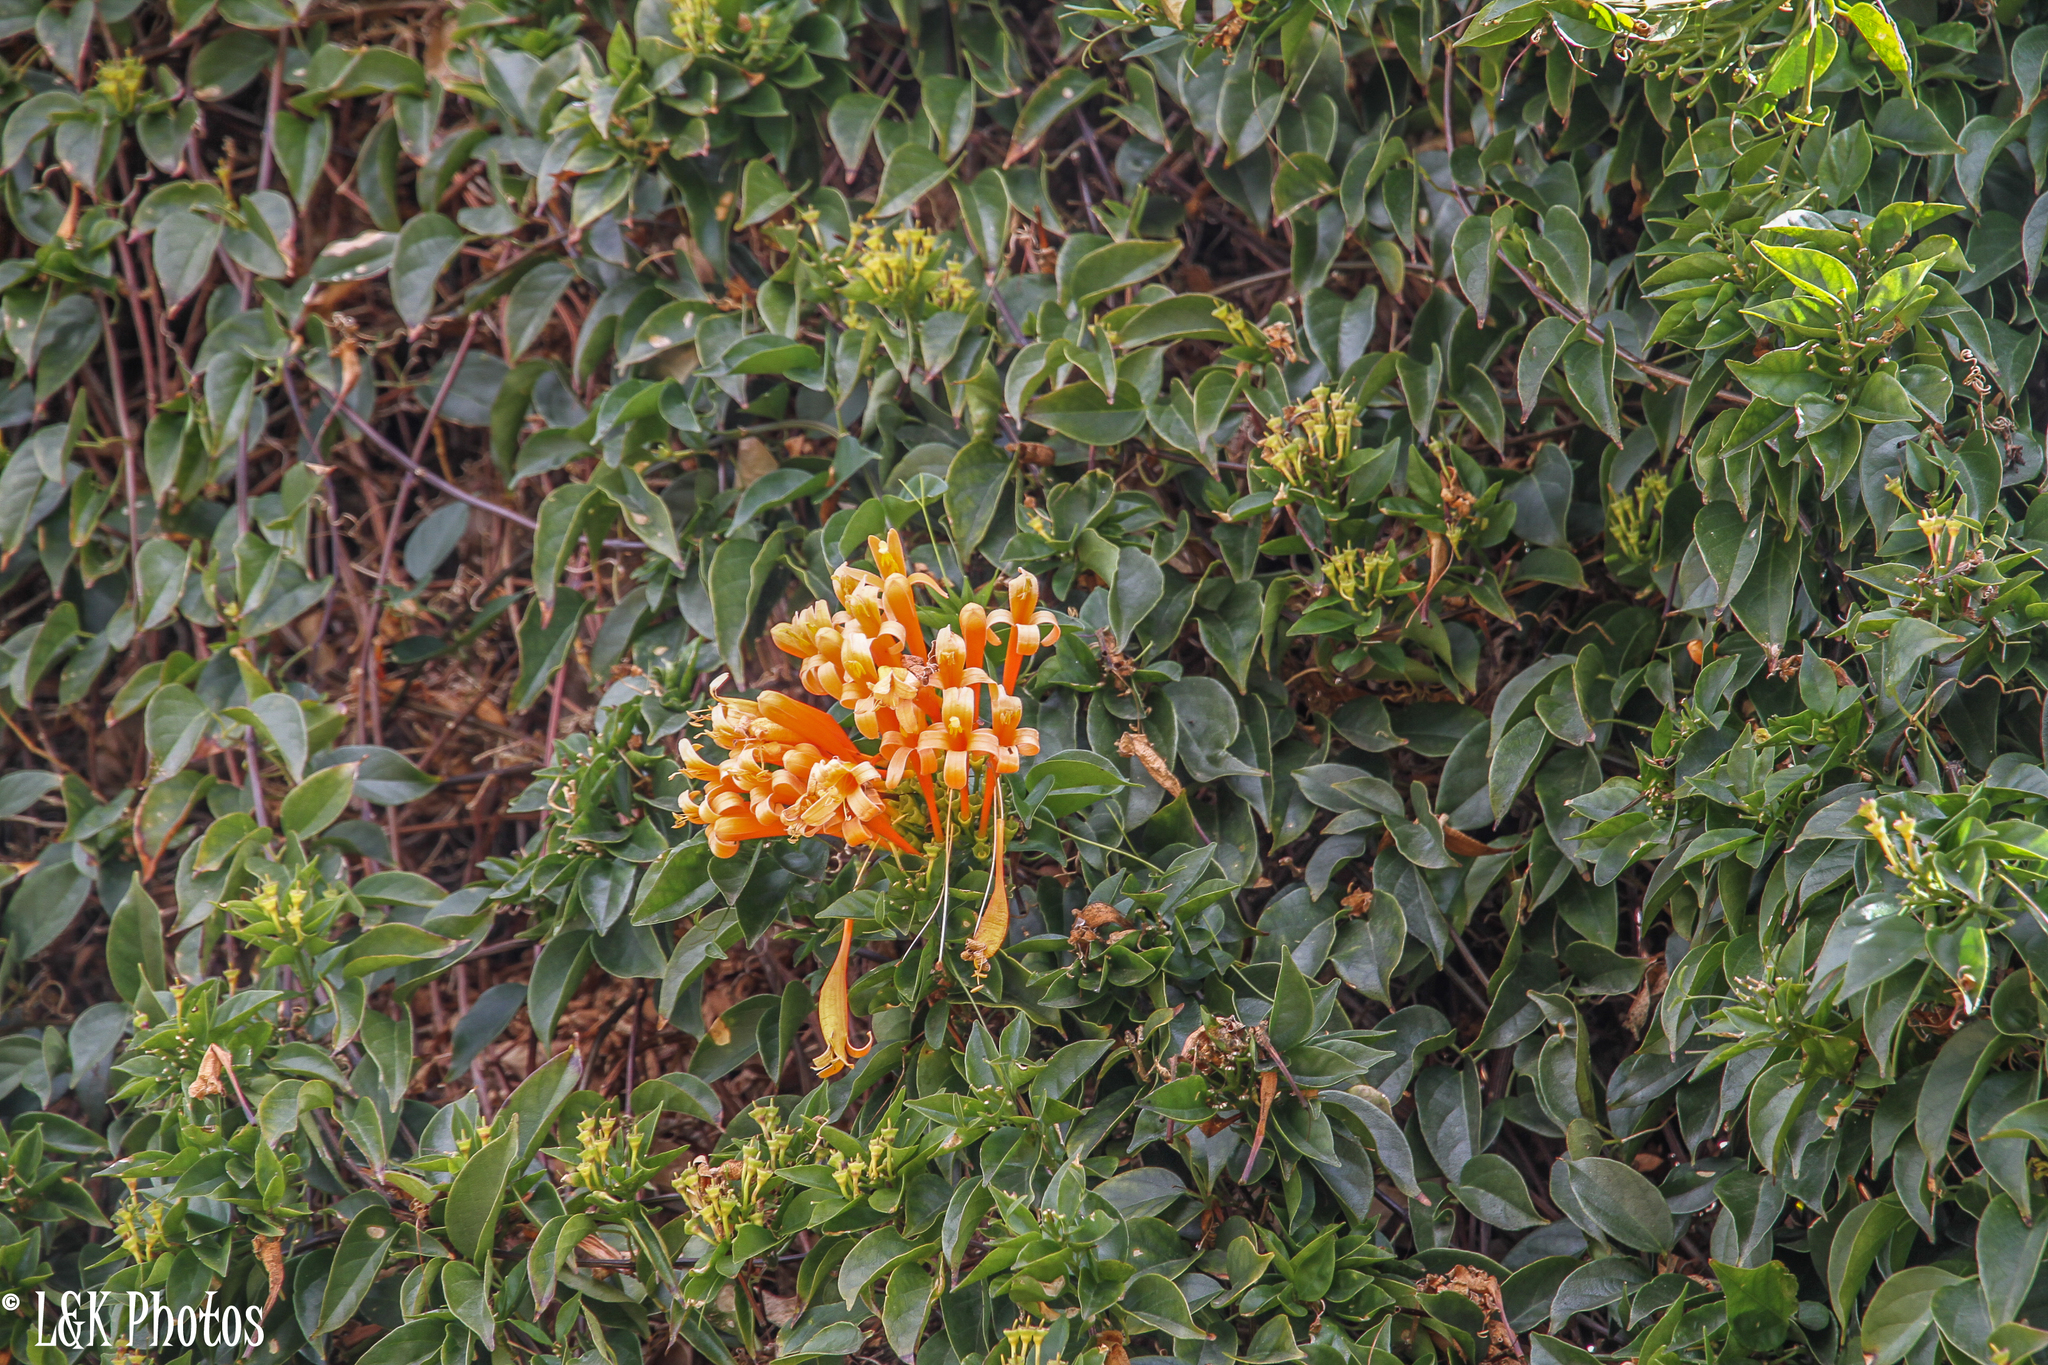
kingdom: Plantae
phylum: Tracheophyta
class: Magnoliopsida
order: Lamiales
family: Bignoniaceae
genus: Pyrostegia
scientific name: Pyrostegia venusta
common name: Flamevine
